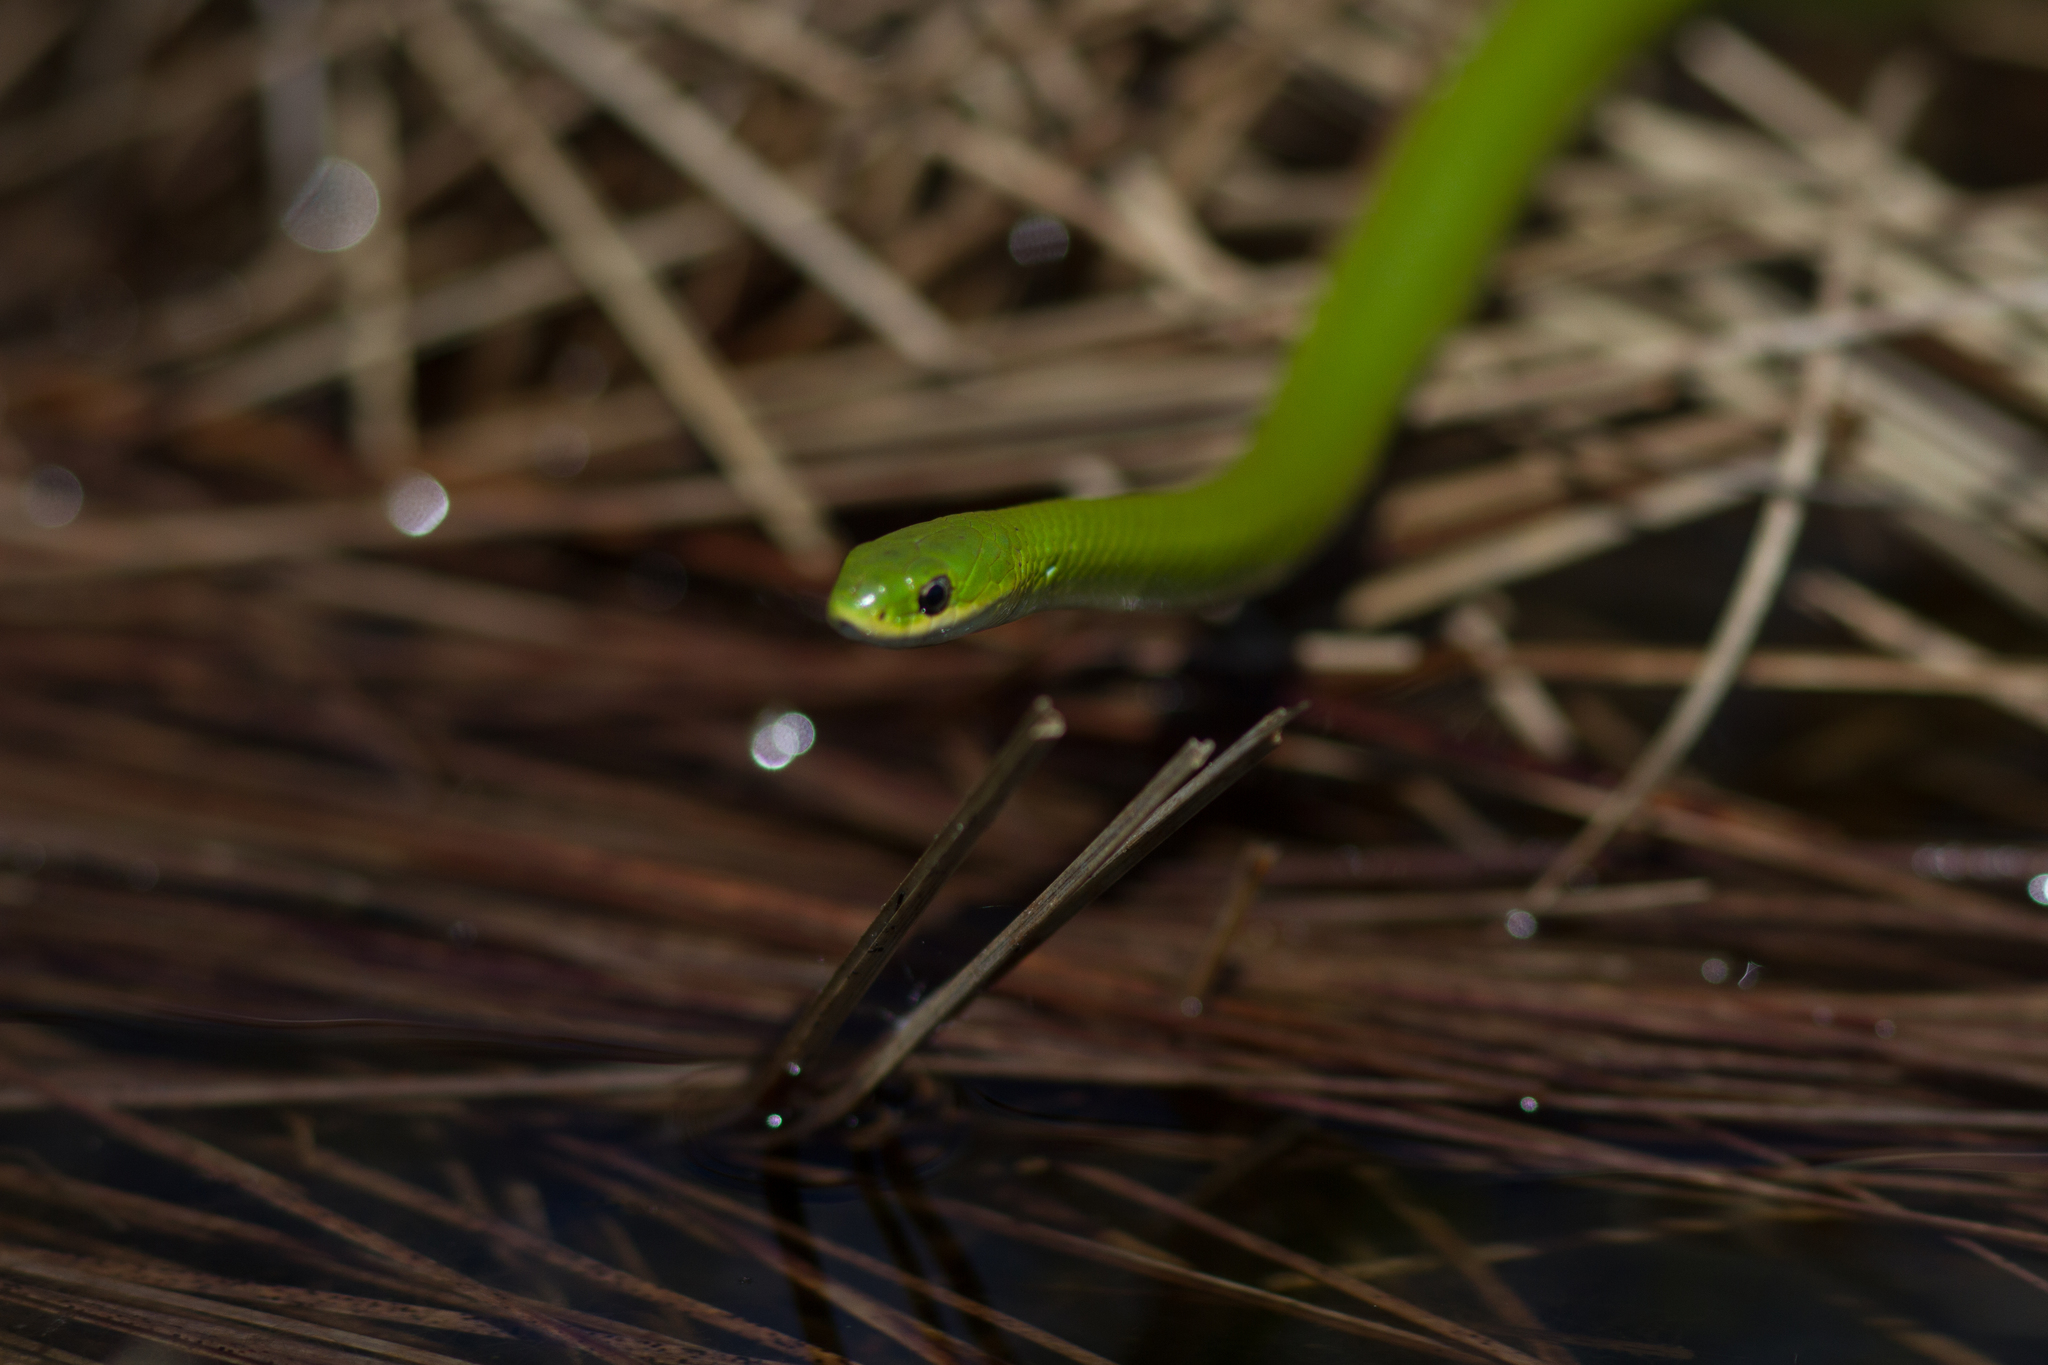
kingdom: Animalia
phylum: Chordata
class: Squamata
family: Colubridae
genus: Opheodrys
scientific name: Opheodrys vernalis
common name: Smooth green snake
